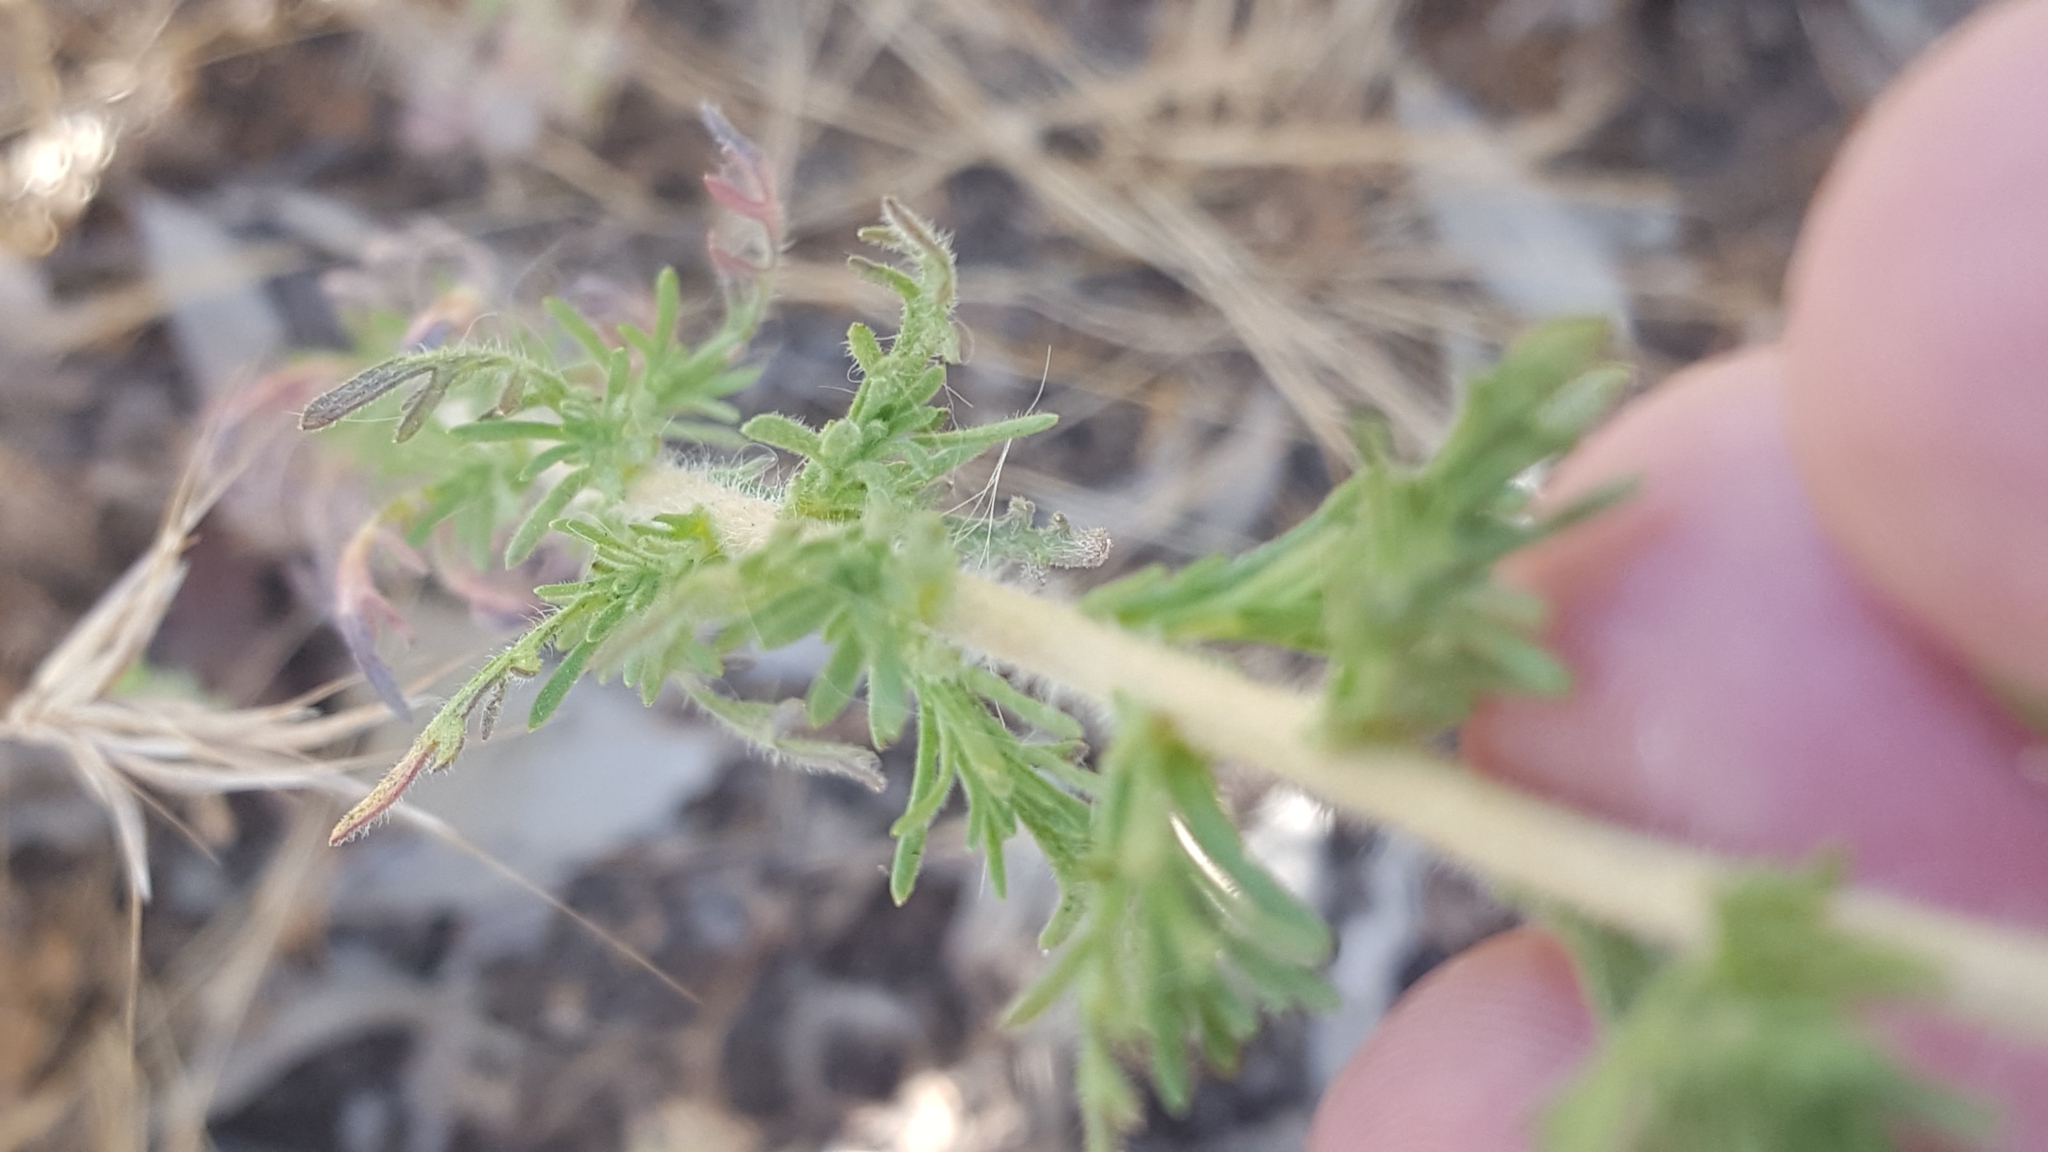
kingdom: Plantae
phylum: Tracheophyta
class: Magnoliopsida
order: Asterales
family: Asteraceae
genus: Deinandra
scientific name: Deinandra paniculata
